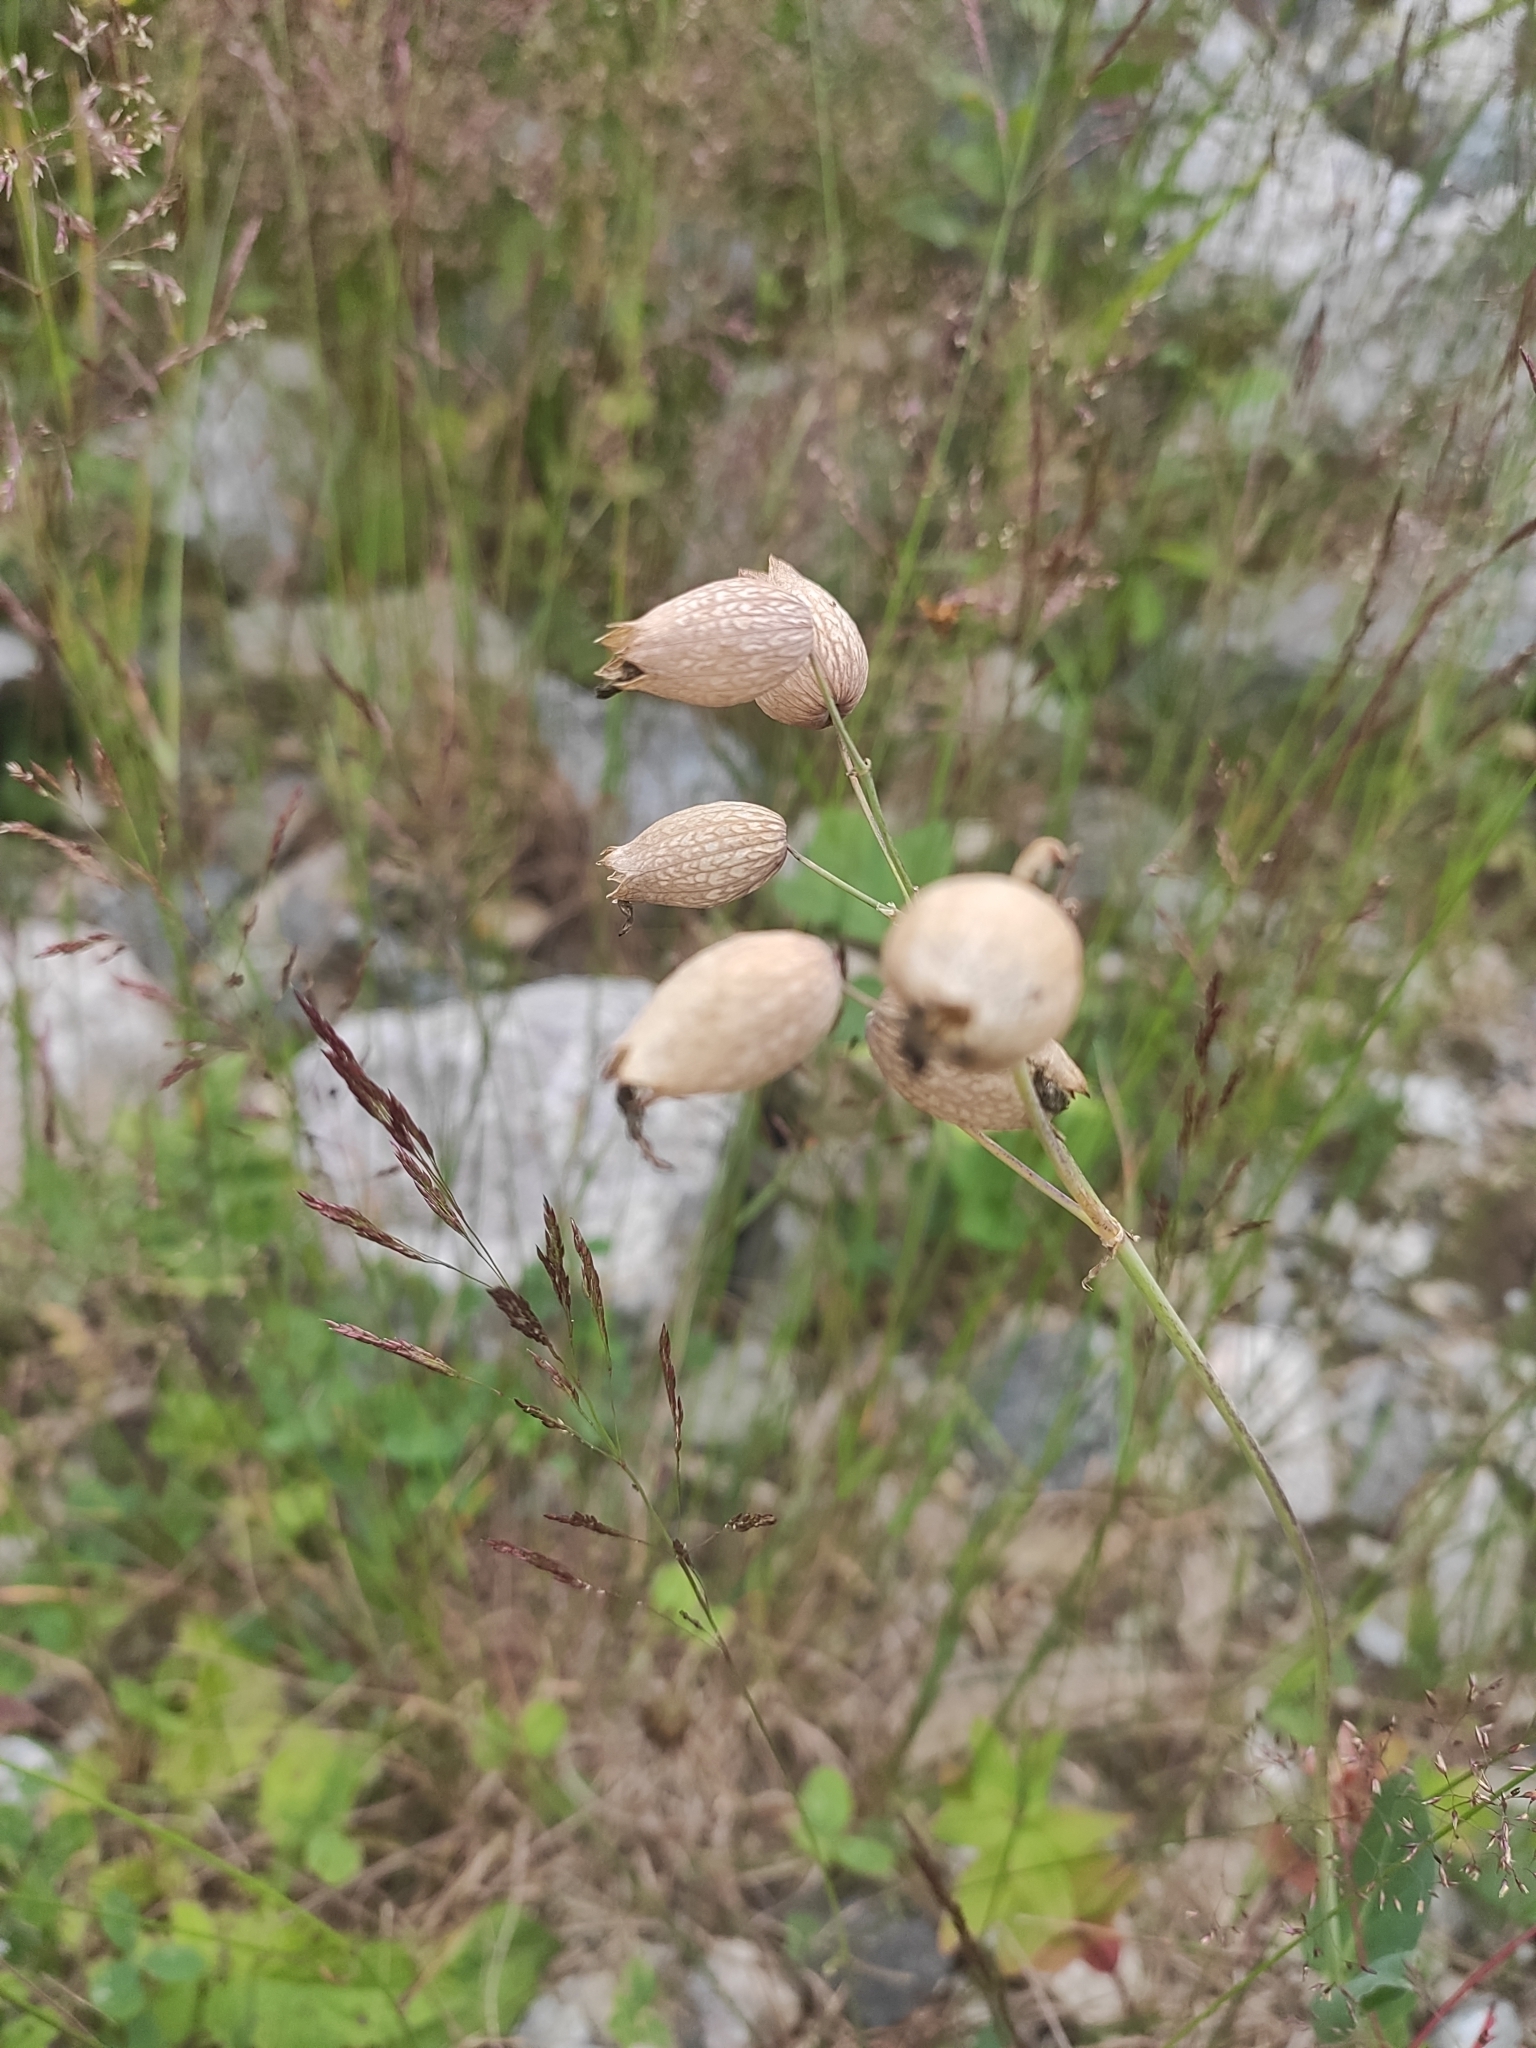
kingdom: Plantae
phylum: Tracheophyta
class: Magnoliopsida
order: Caryophyllales
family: Caryophyllaceae
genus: Silene
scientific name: Silene vulgaris
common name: Bladder campion
